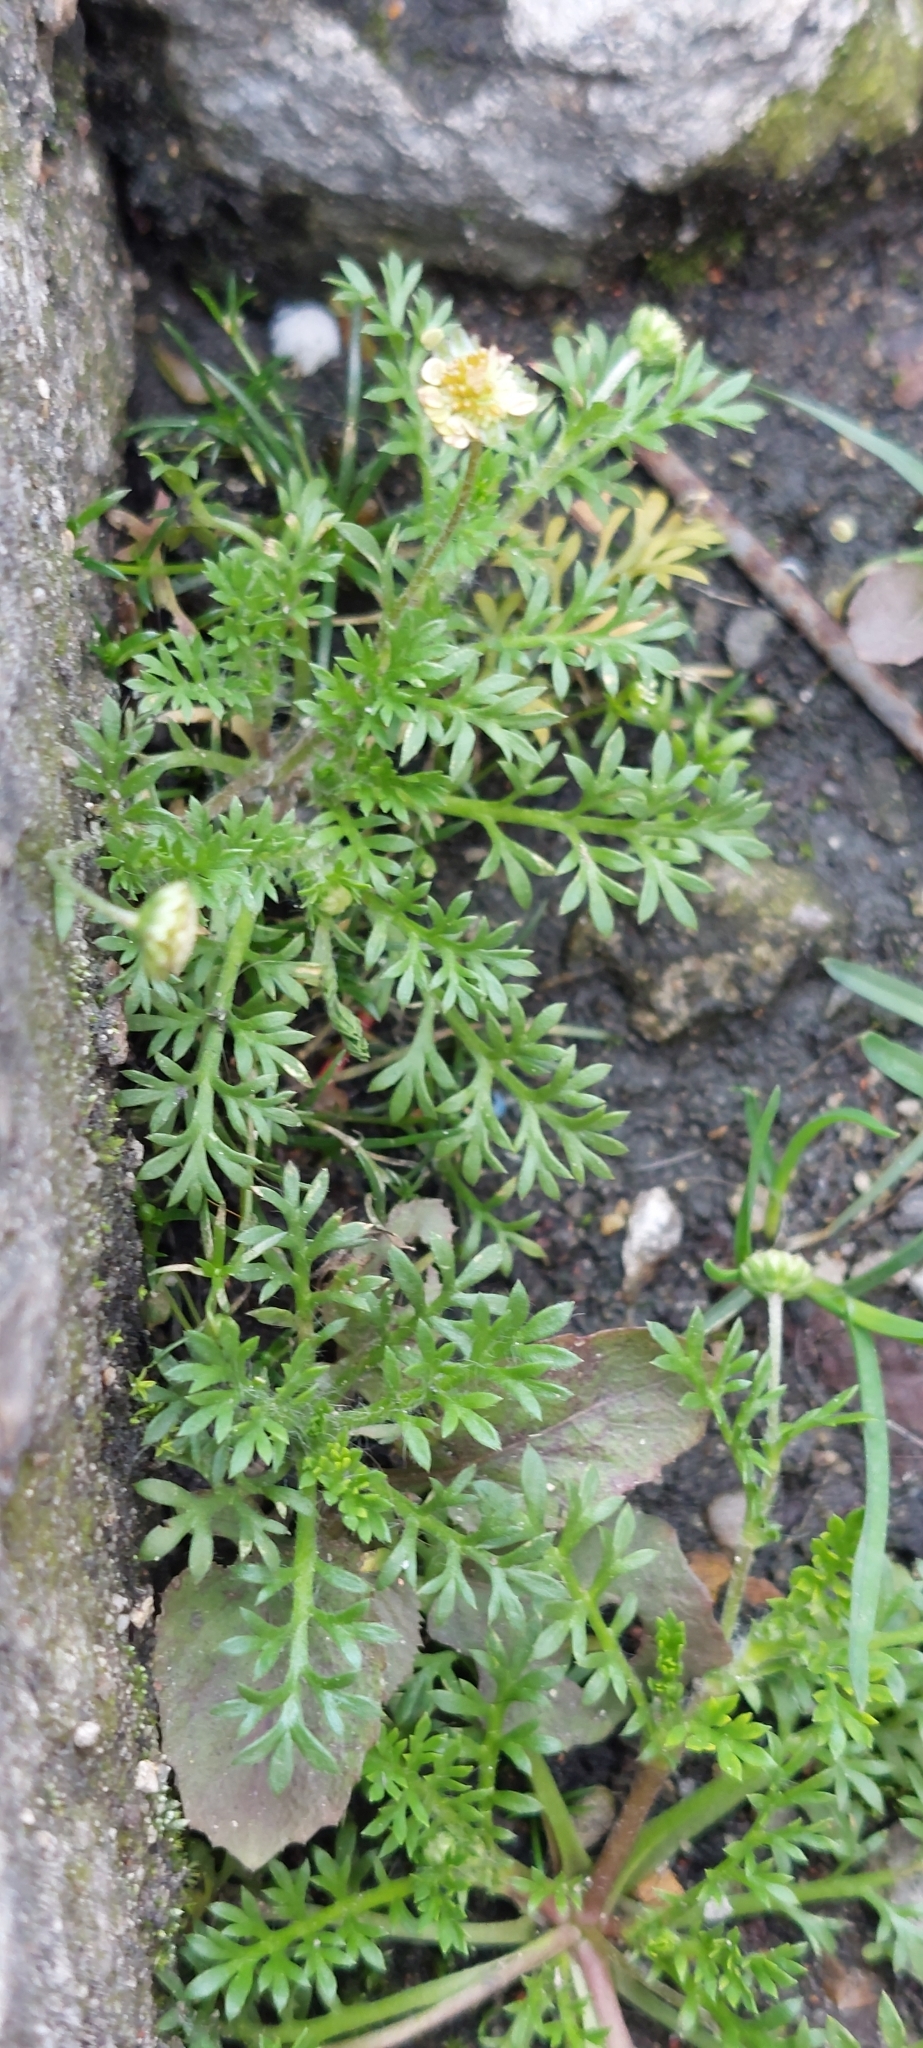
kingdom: Plantae
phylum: Tracheophyta
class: Magnoliopsida
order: Asterales
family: Asteraceae
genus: Cotula
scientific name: Cotula australis
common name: Australian waterbuttons
